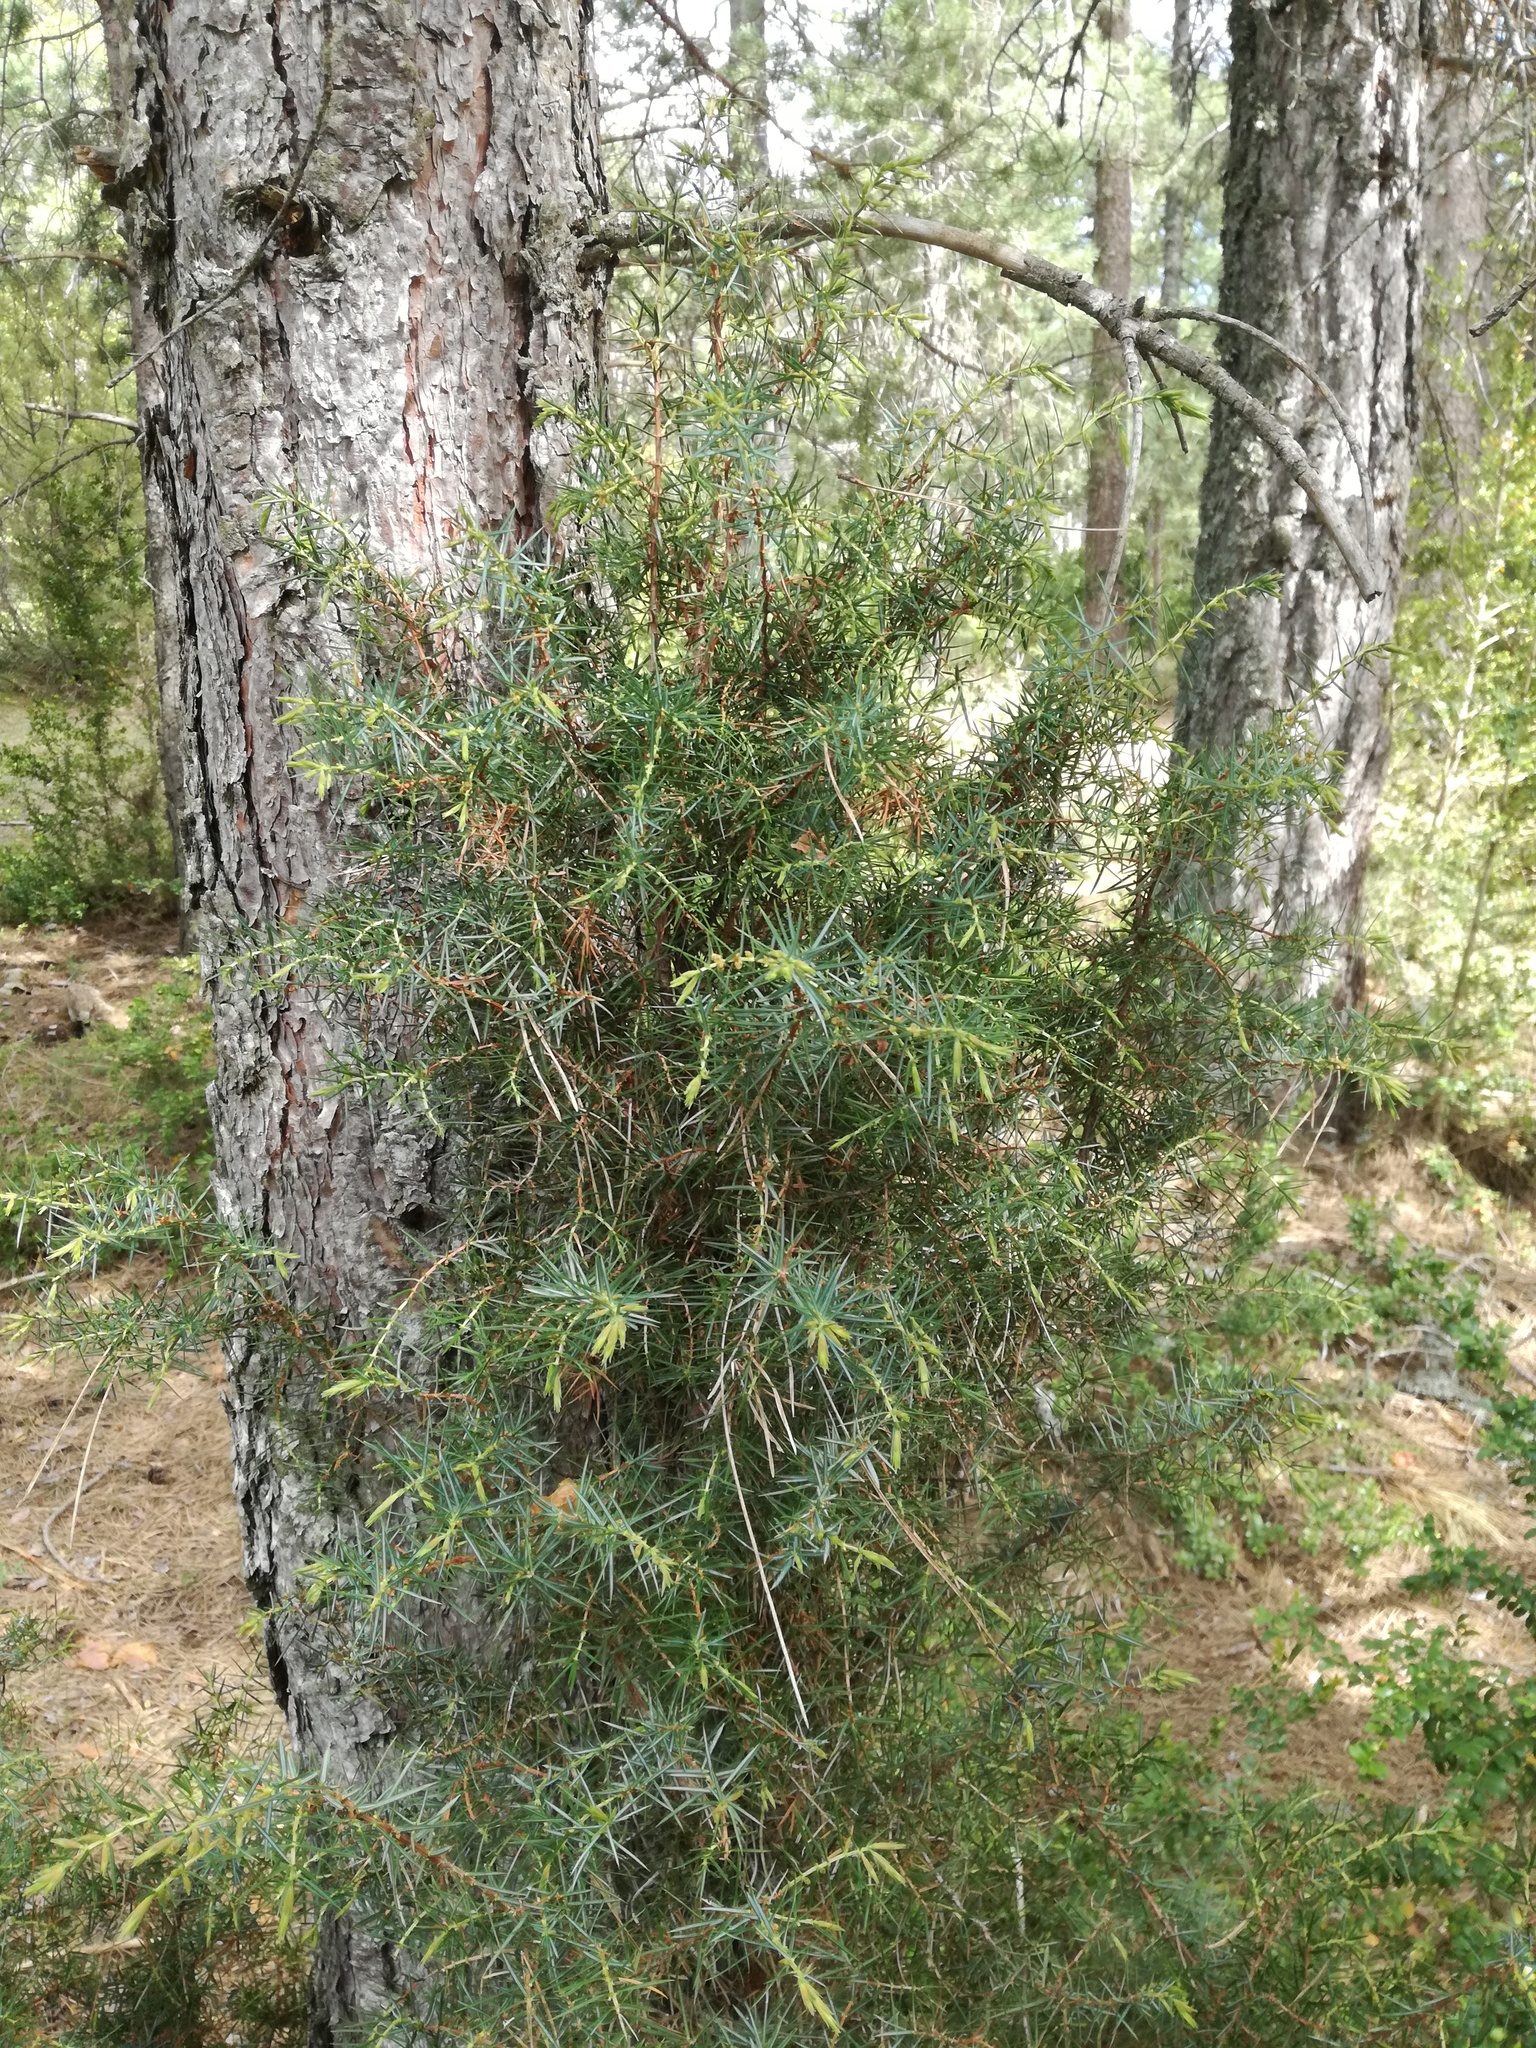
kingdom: Plantae
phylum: Tracheophyta
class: Pinopsida
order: Pinales
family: Cupressaceae
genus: Juniperus
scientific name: Juniperus communis
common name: Common juniper
